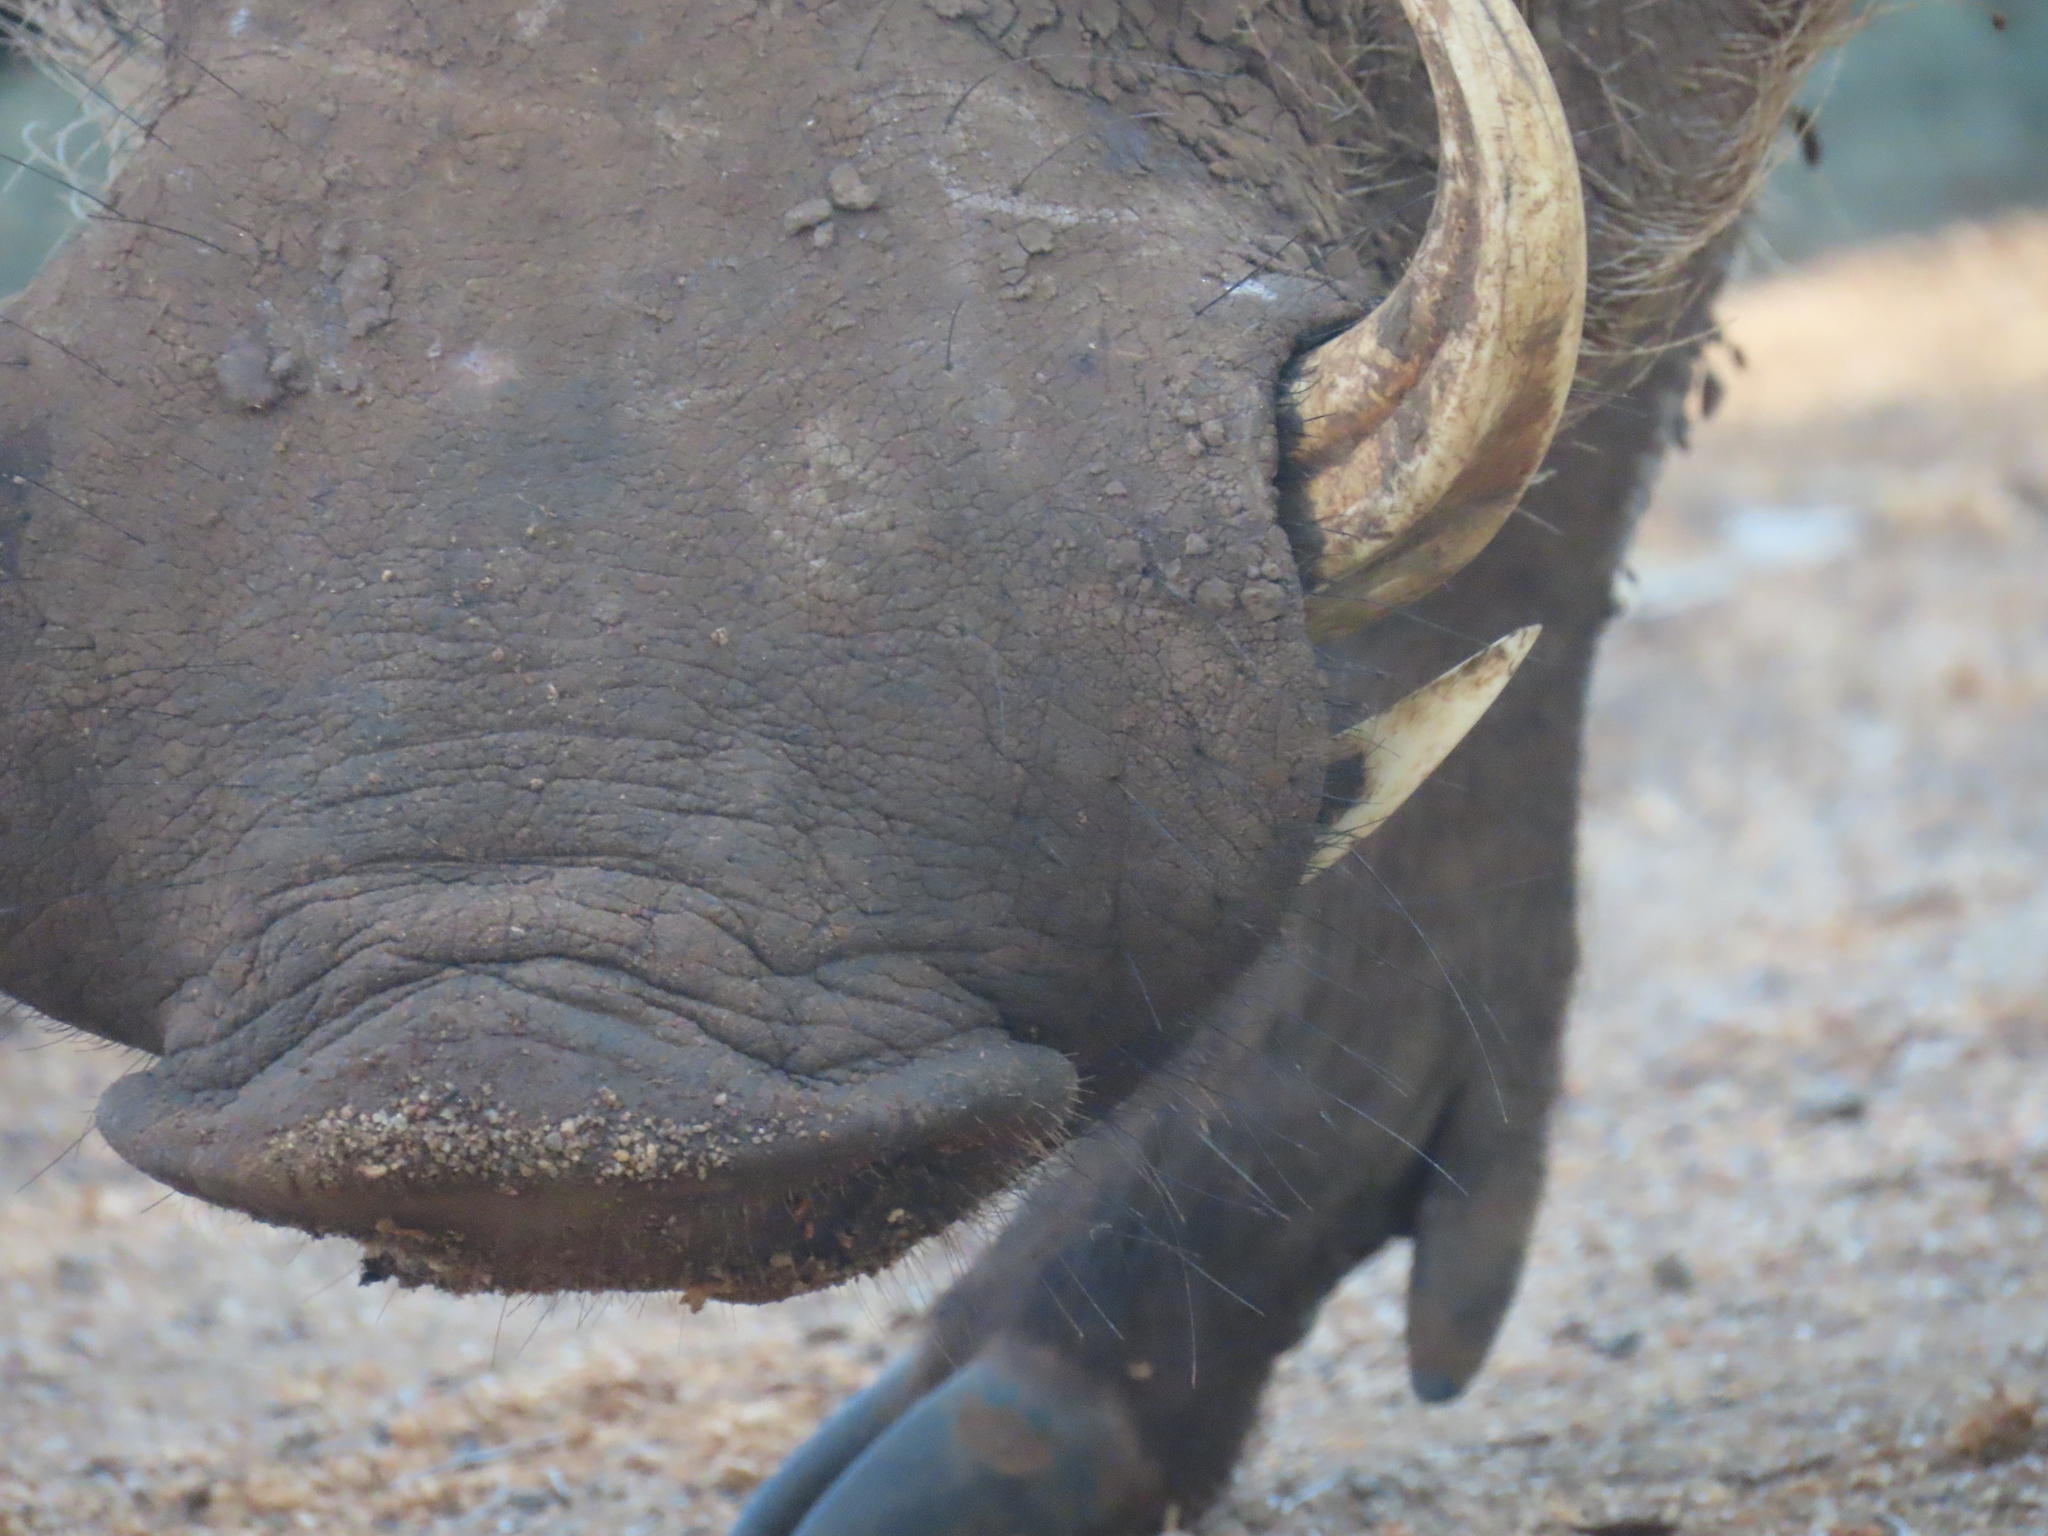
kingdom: Animalia
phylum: Chordata
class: Mammalia
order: Artiodactyla
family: Suidae
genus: Phacochoerus
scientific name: Phacochoerus africanus
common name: Common warthog
